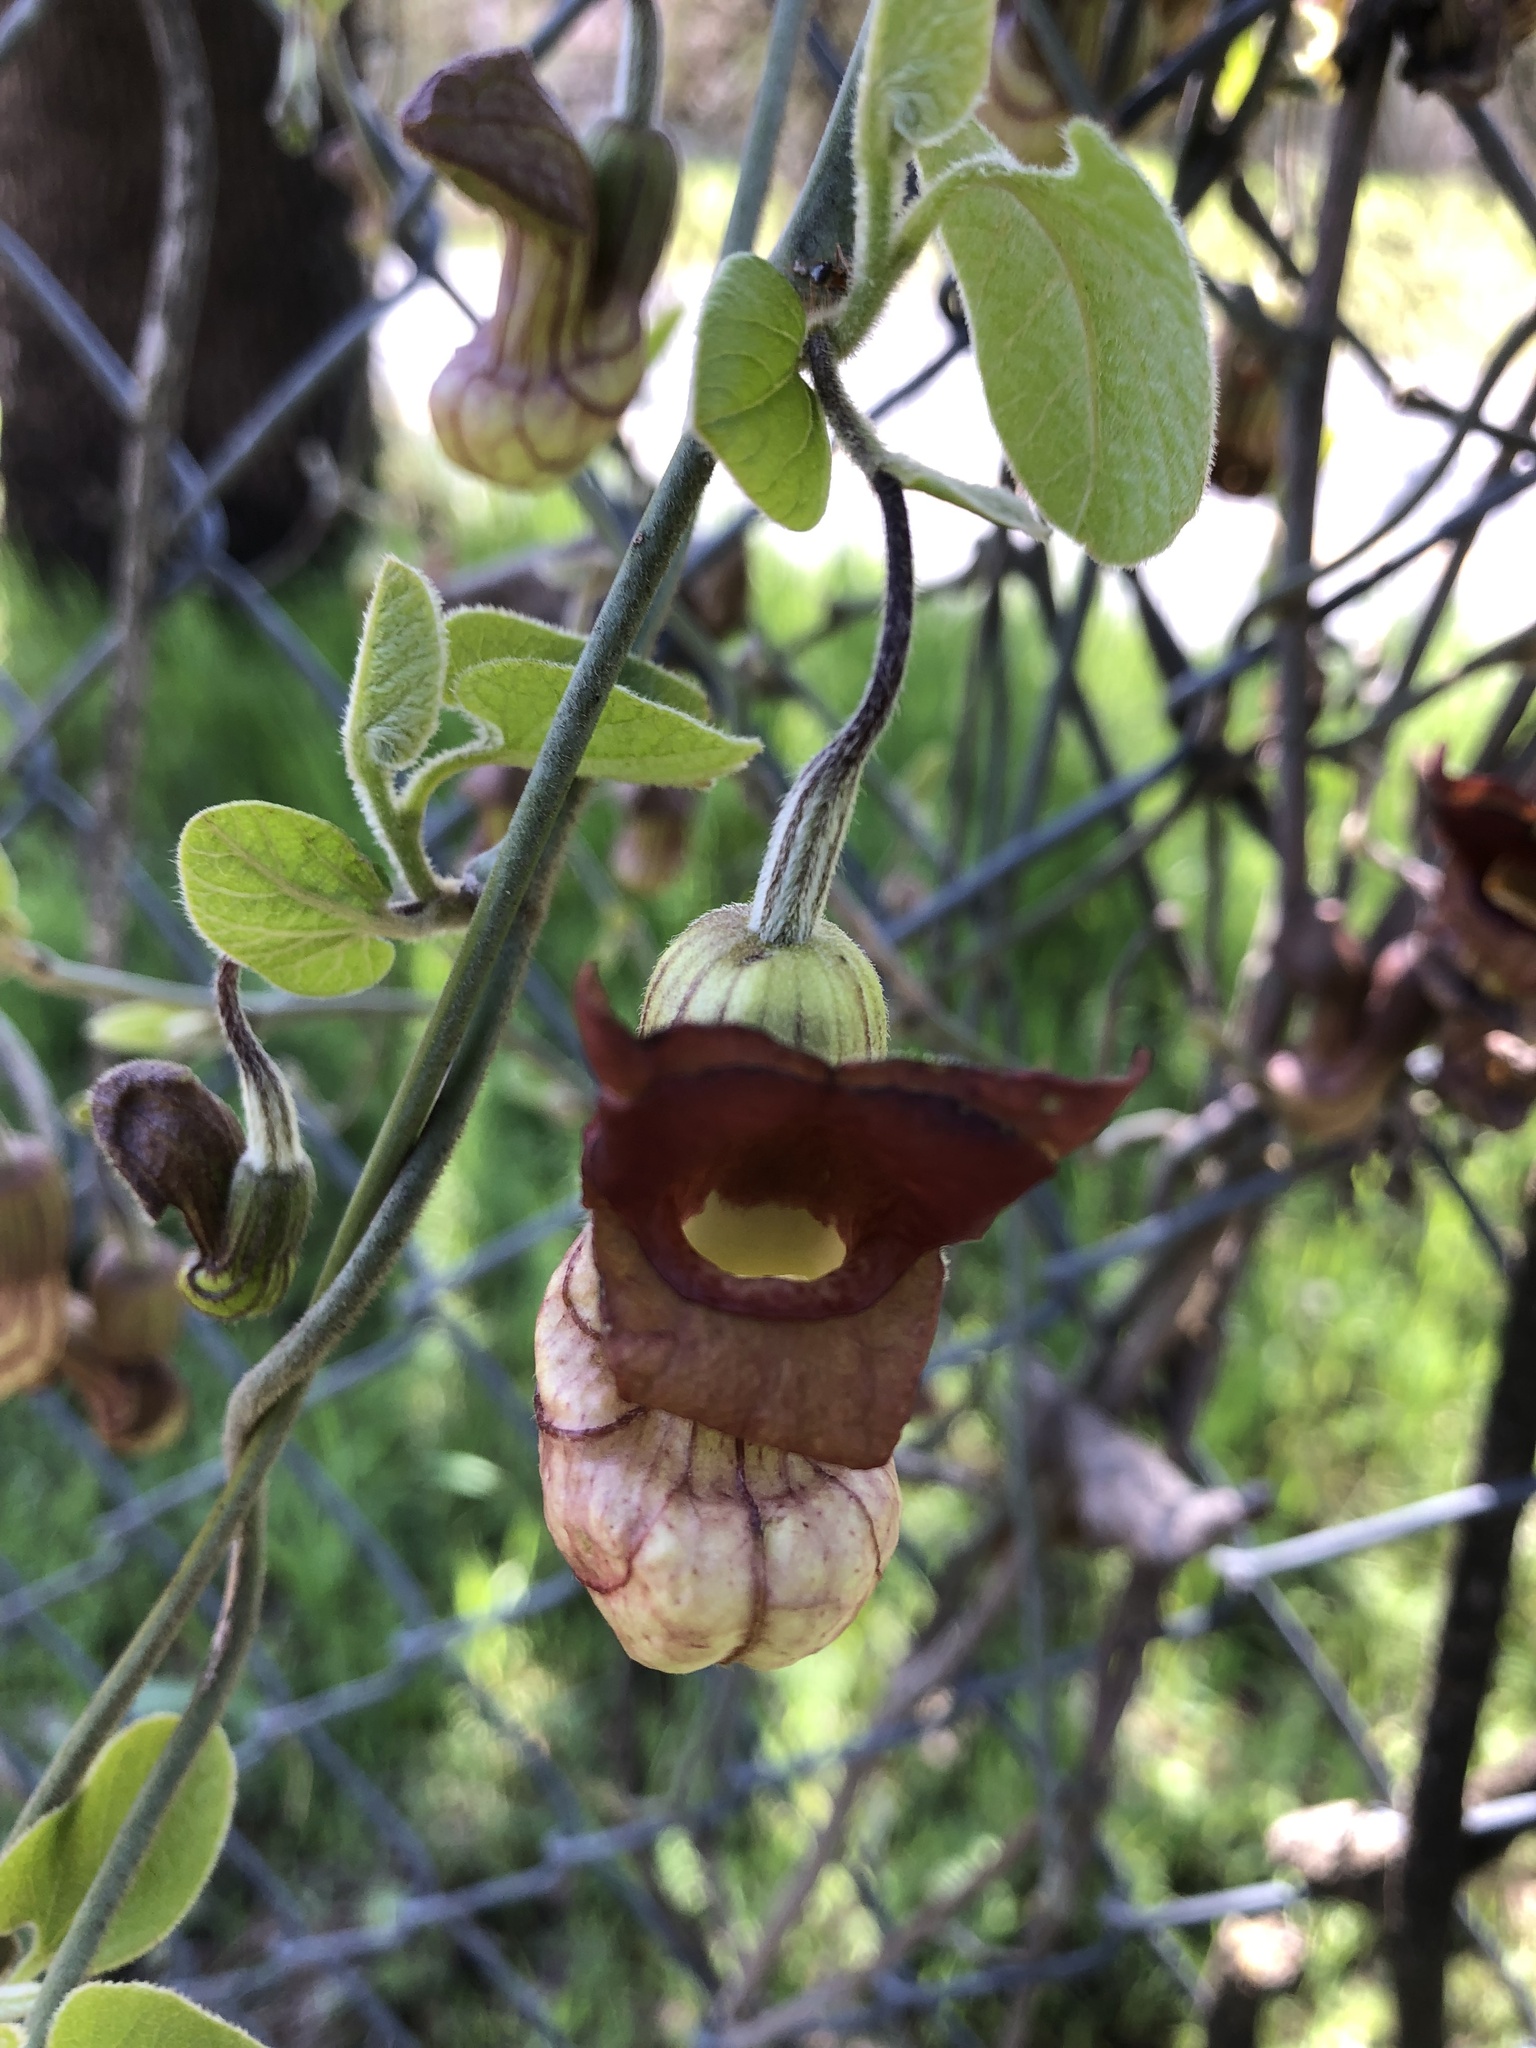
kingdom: Plantae
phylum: Tracheophyta
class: Magnoliopsida
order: Piperales
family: Aristolochiaceae
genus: Isotrema
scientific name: Isotrema californicum
